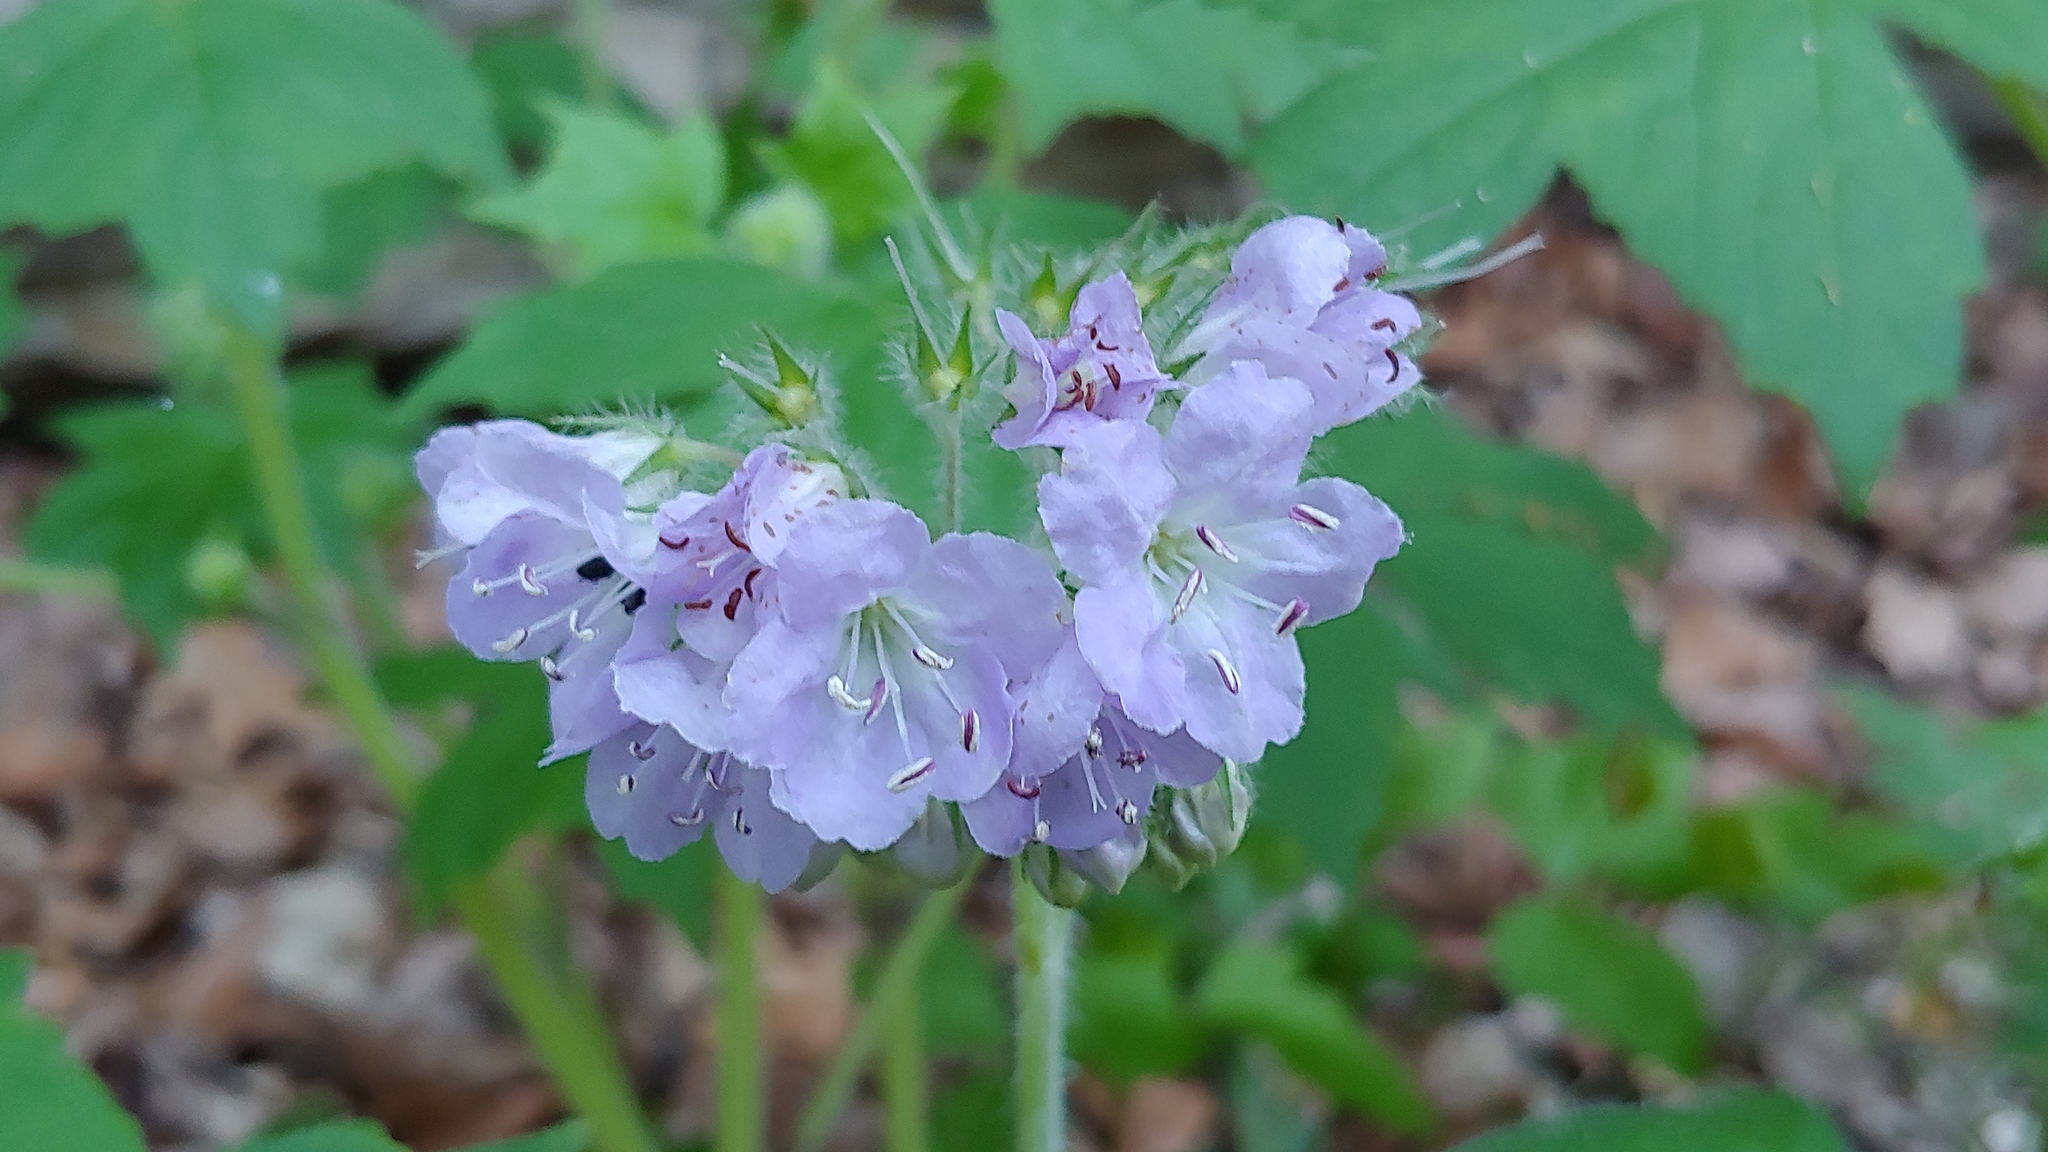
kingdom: Plantae
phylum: Tracheophyta
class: Magnoliopsida
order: Boraginales
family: Hydrophyllaceae
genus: Hydrophyllum
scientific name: Hydrophyllum appendiculatum
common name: Appendaged waterleaf
